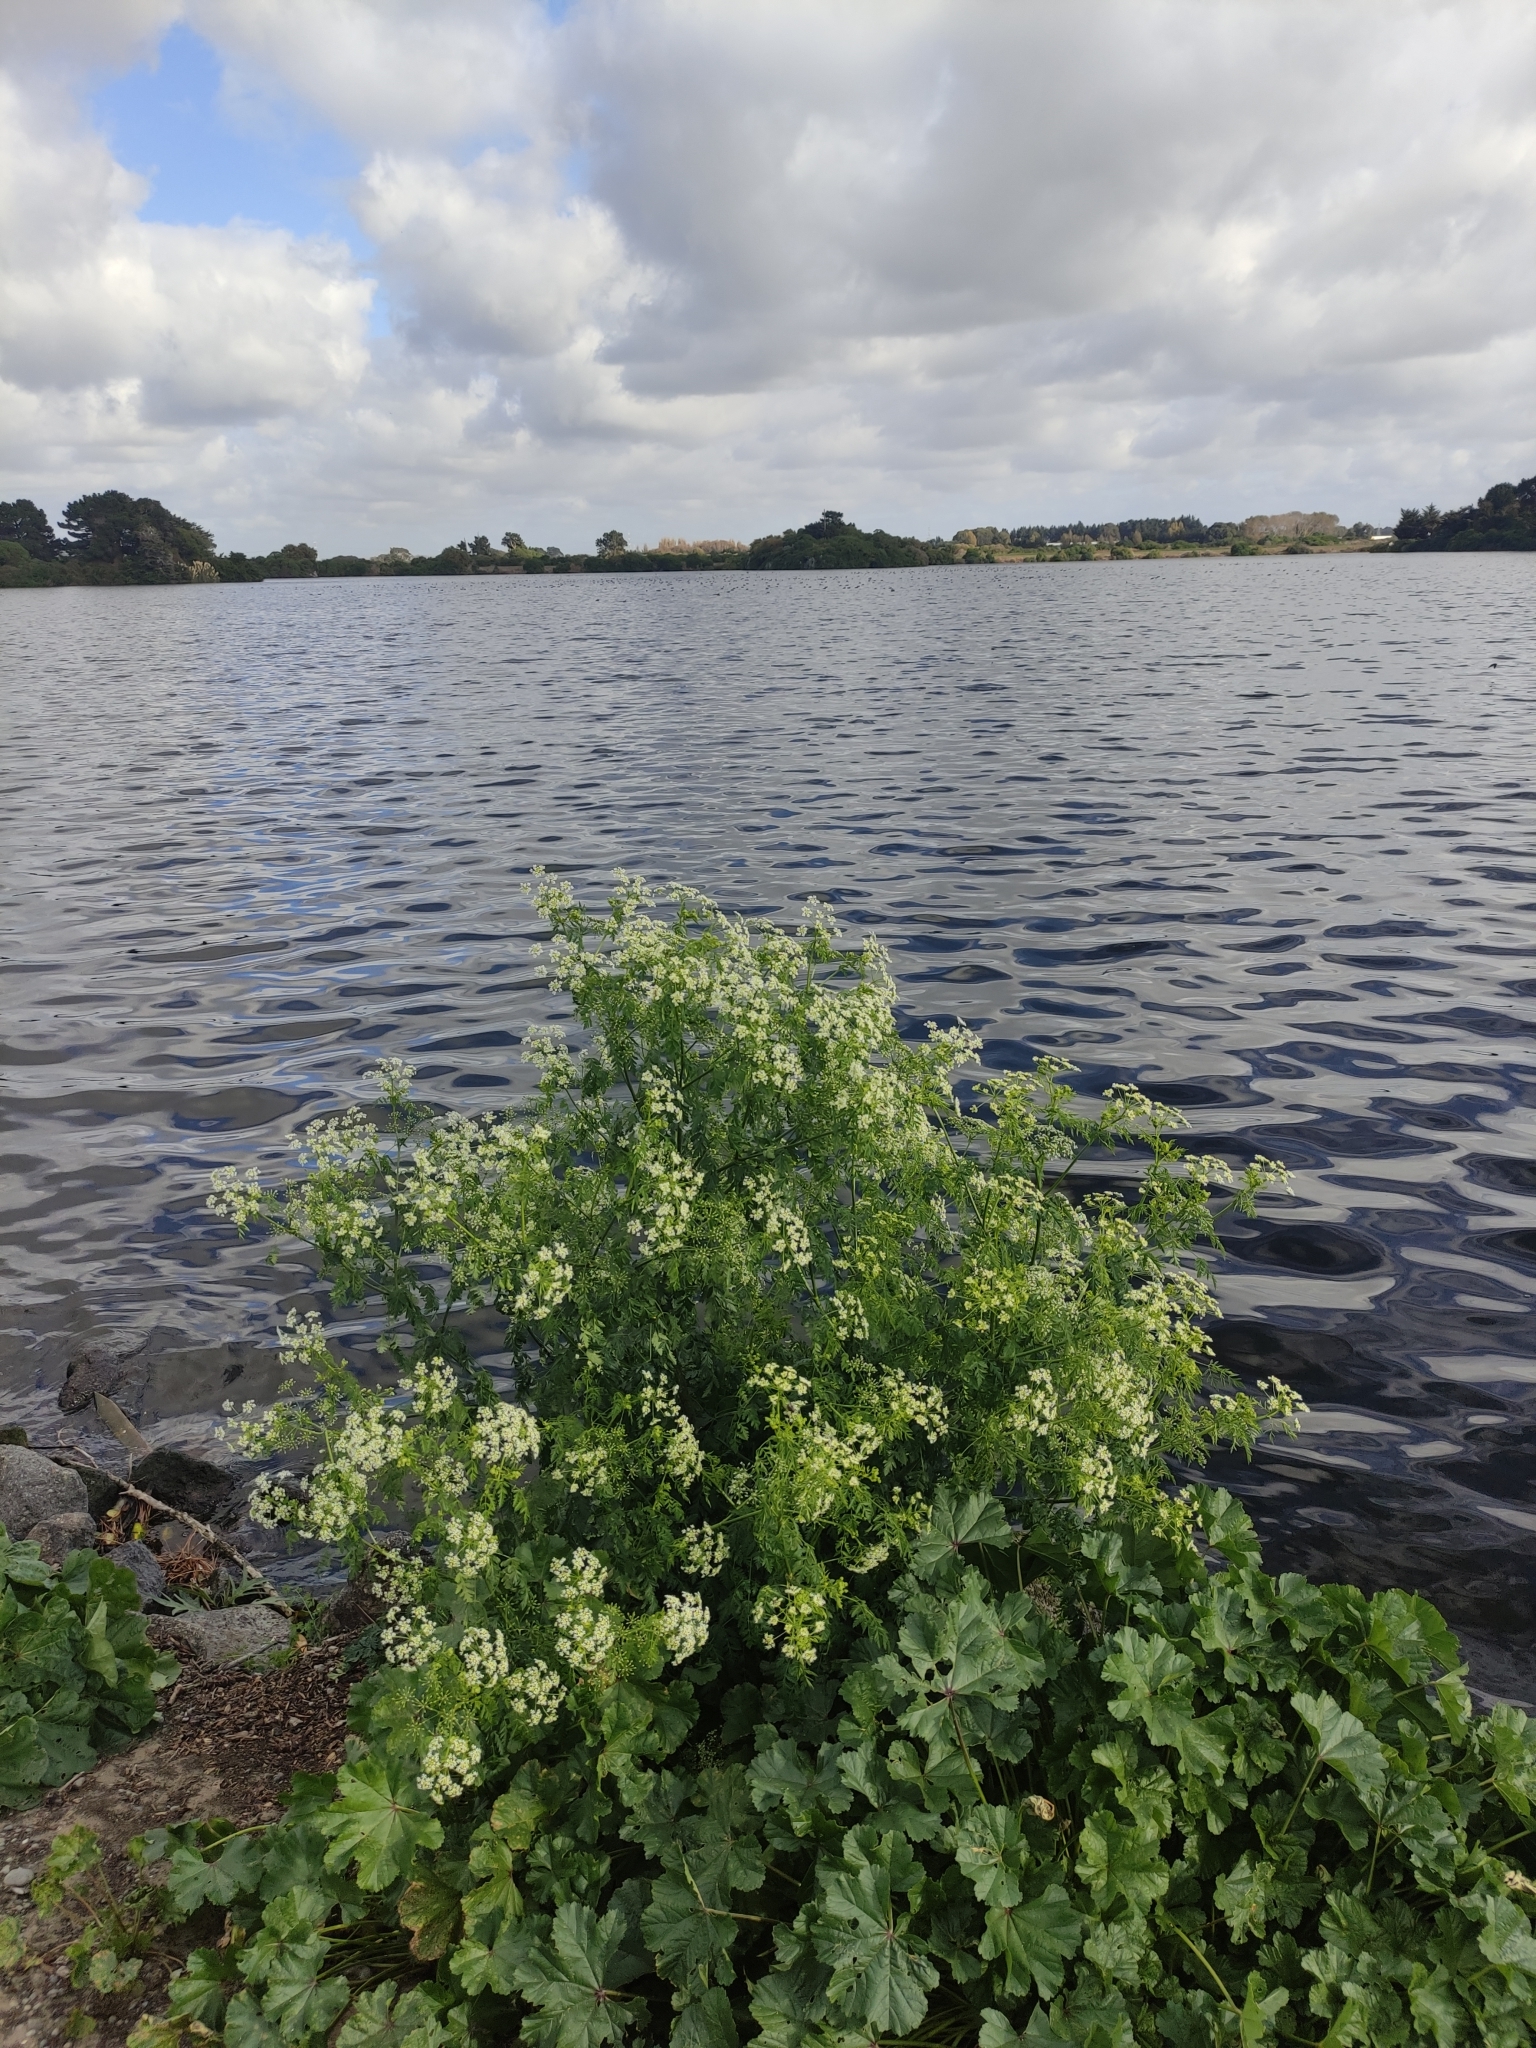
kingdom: Plantae
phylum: Tracheophyta
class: Magnoliopsida
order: Apiales
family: Apiaceae
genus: Conium
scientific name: Conium maculatum
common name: Hemlock
